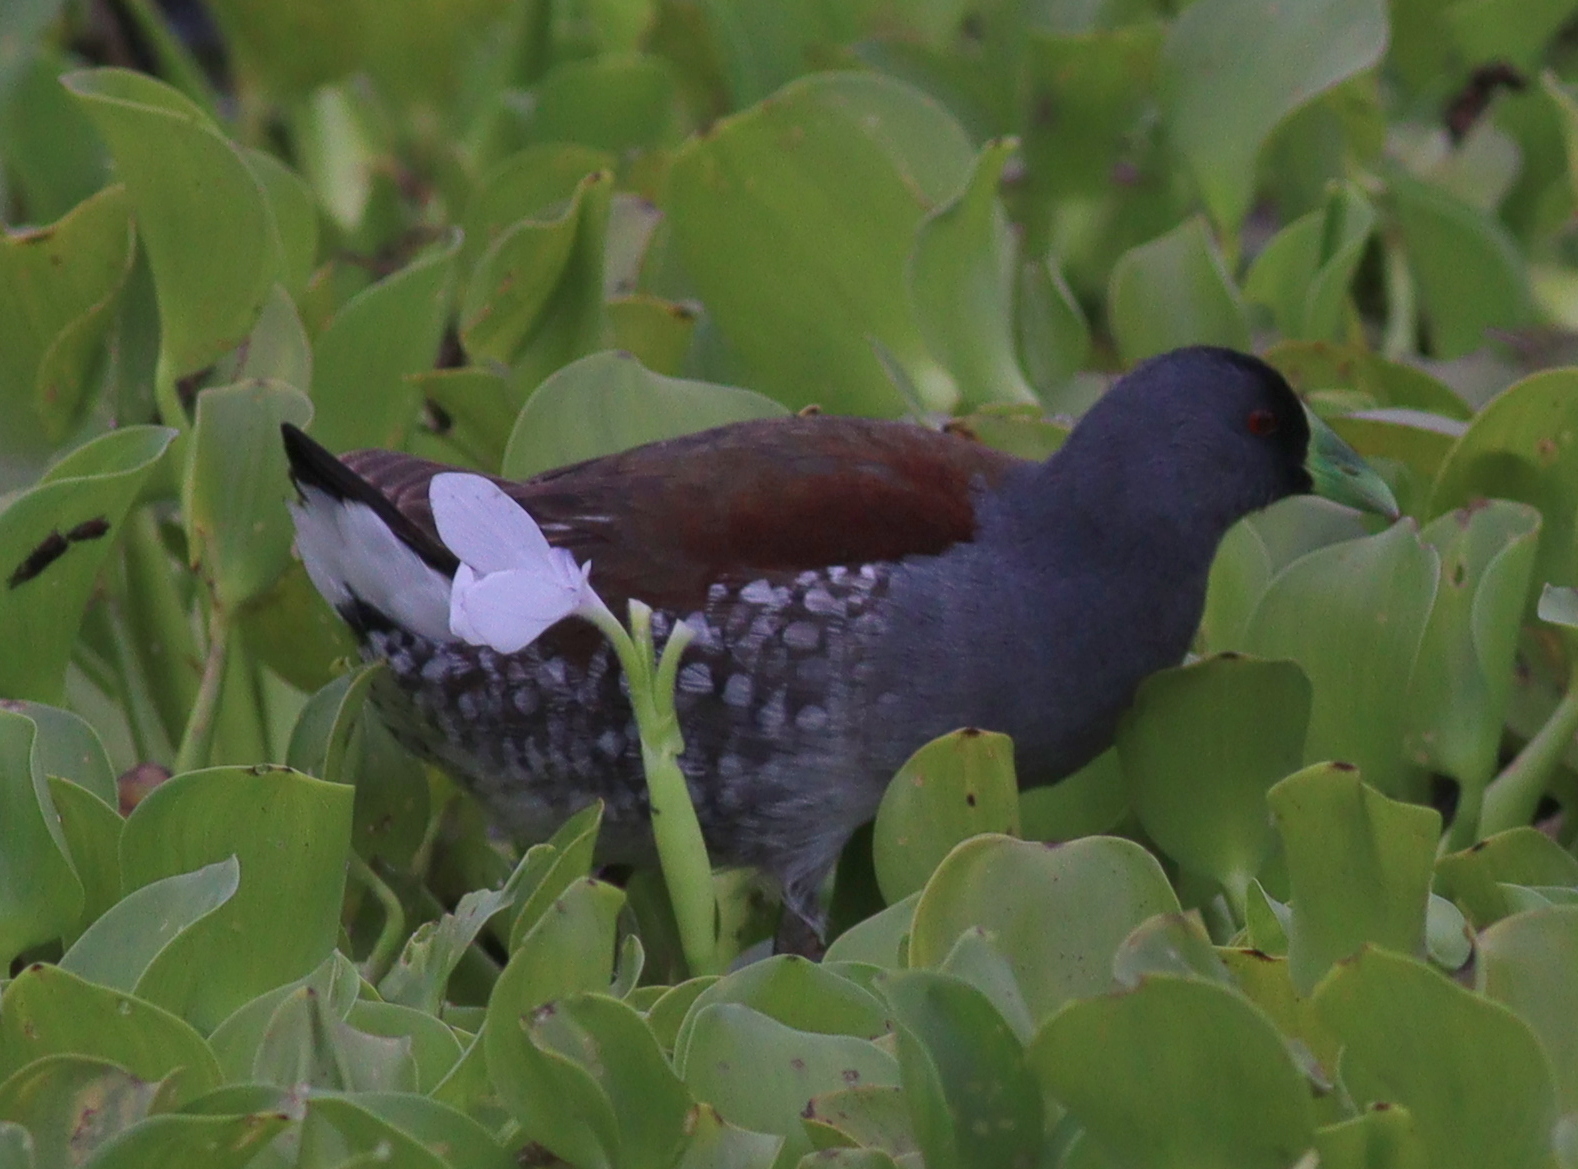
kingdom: Animalia
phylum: Chordata
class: Aves
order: Gruiformes
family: Rallidae
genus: Gallinula
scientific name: Gallinula melanops
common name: Spot-flanked gallinule
